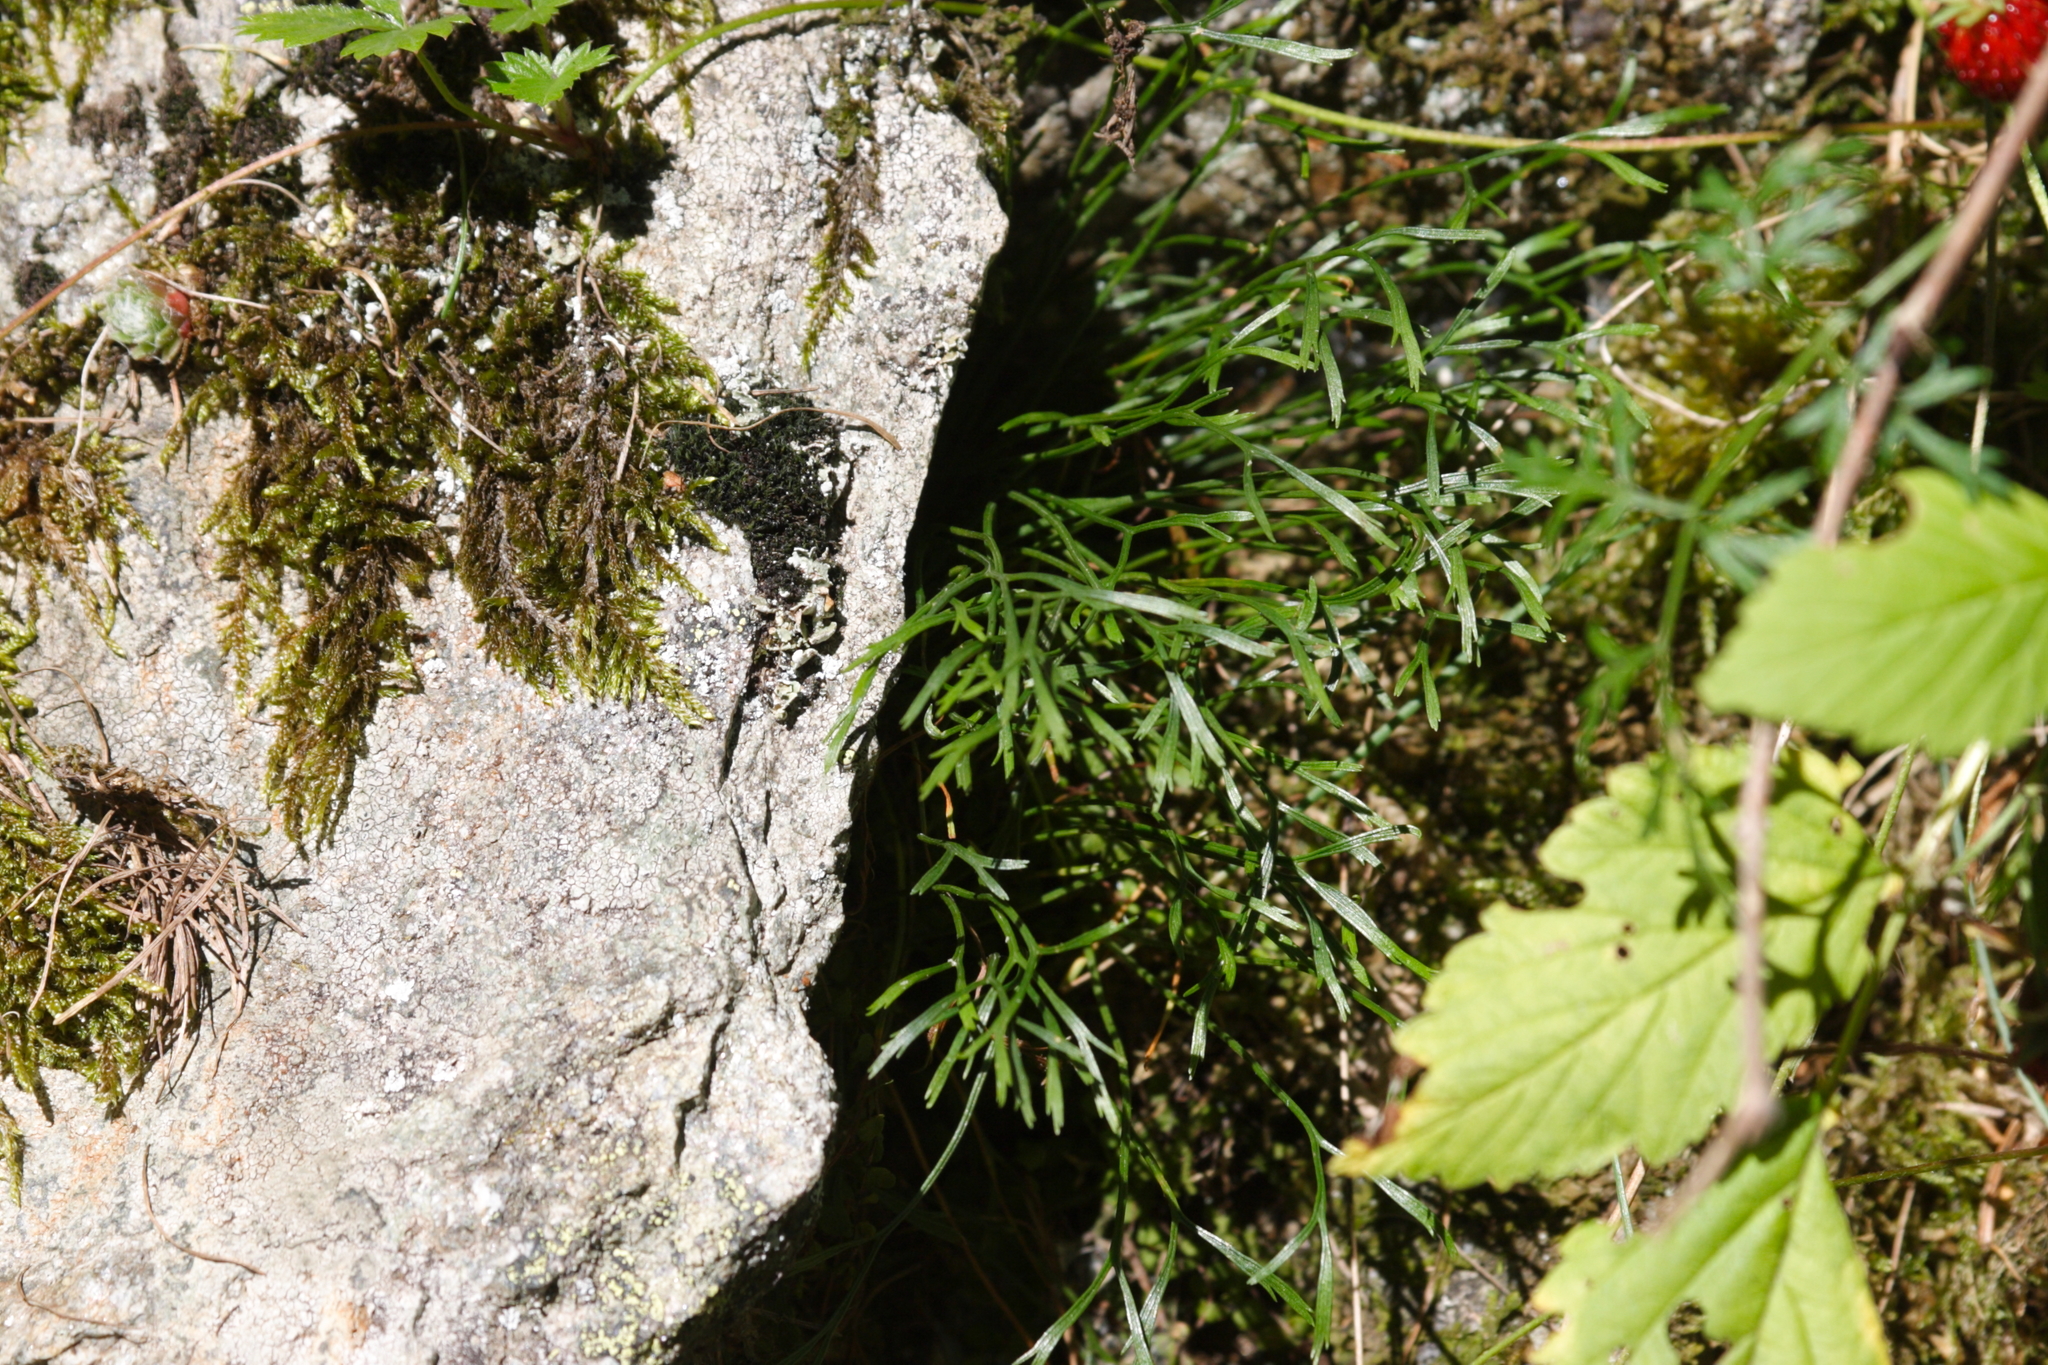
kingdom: Plantae
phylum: Tracheophyta
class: Polypodiopsida
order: Polypodiales
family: Aspleniaceae
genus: Asplenium
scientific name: Asplenium septentrionale
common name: Forked spleenwort
